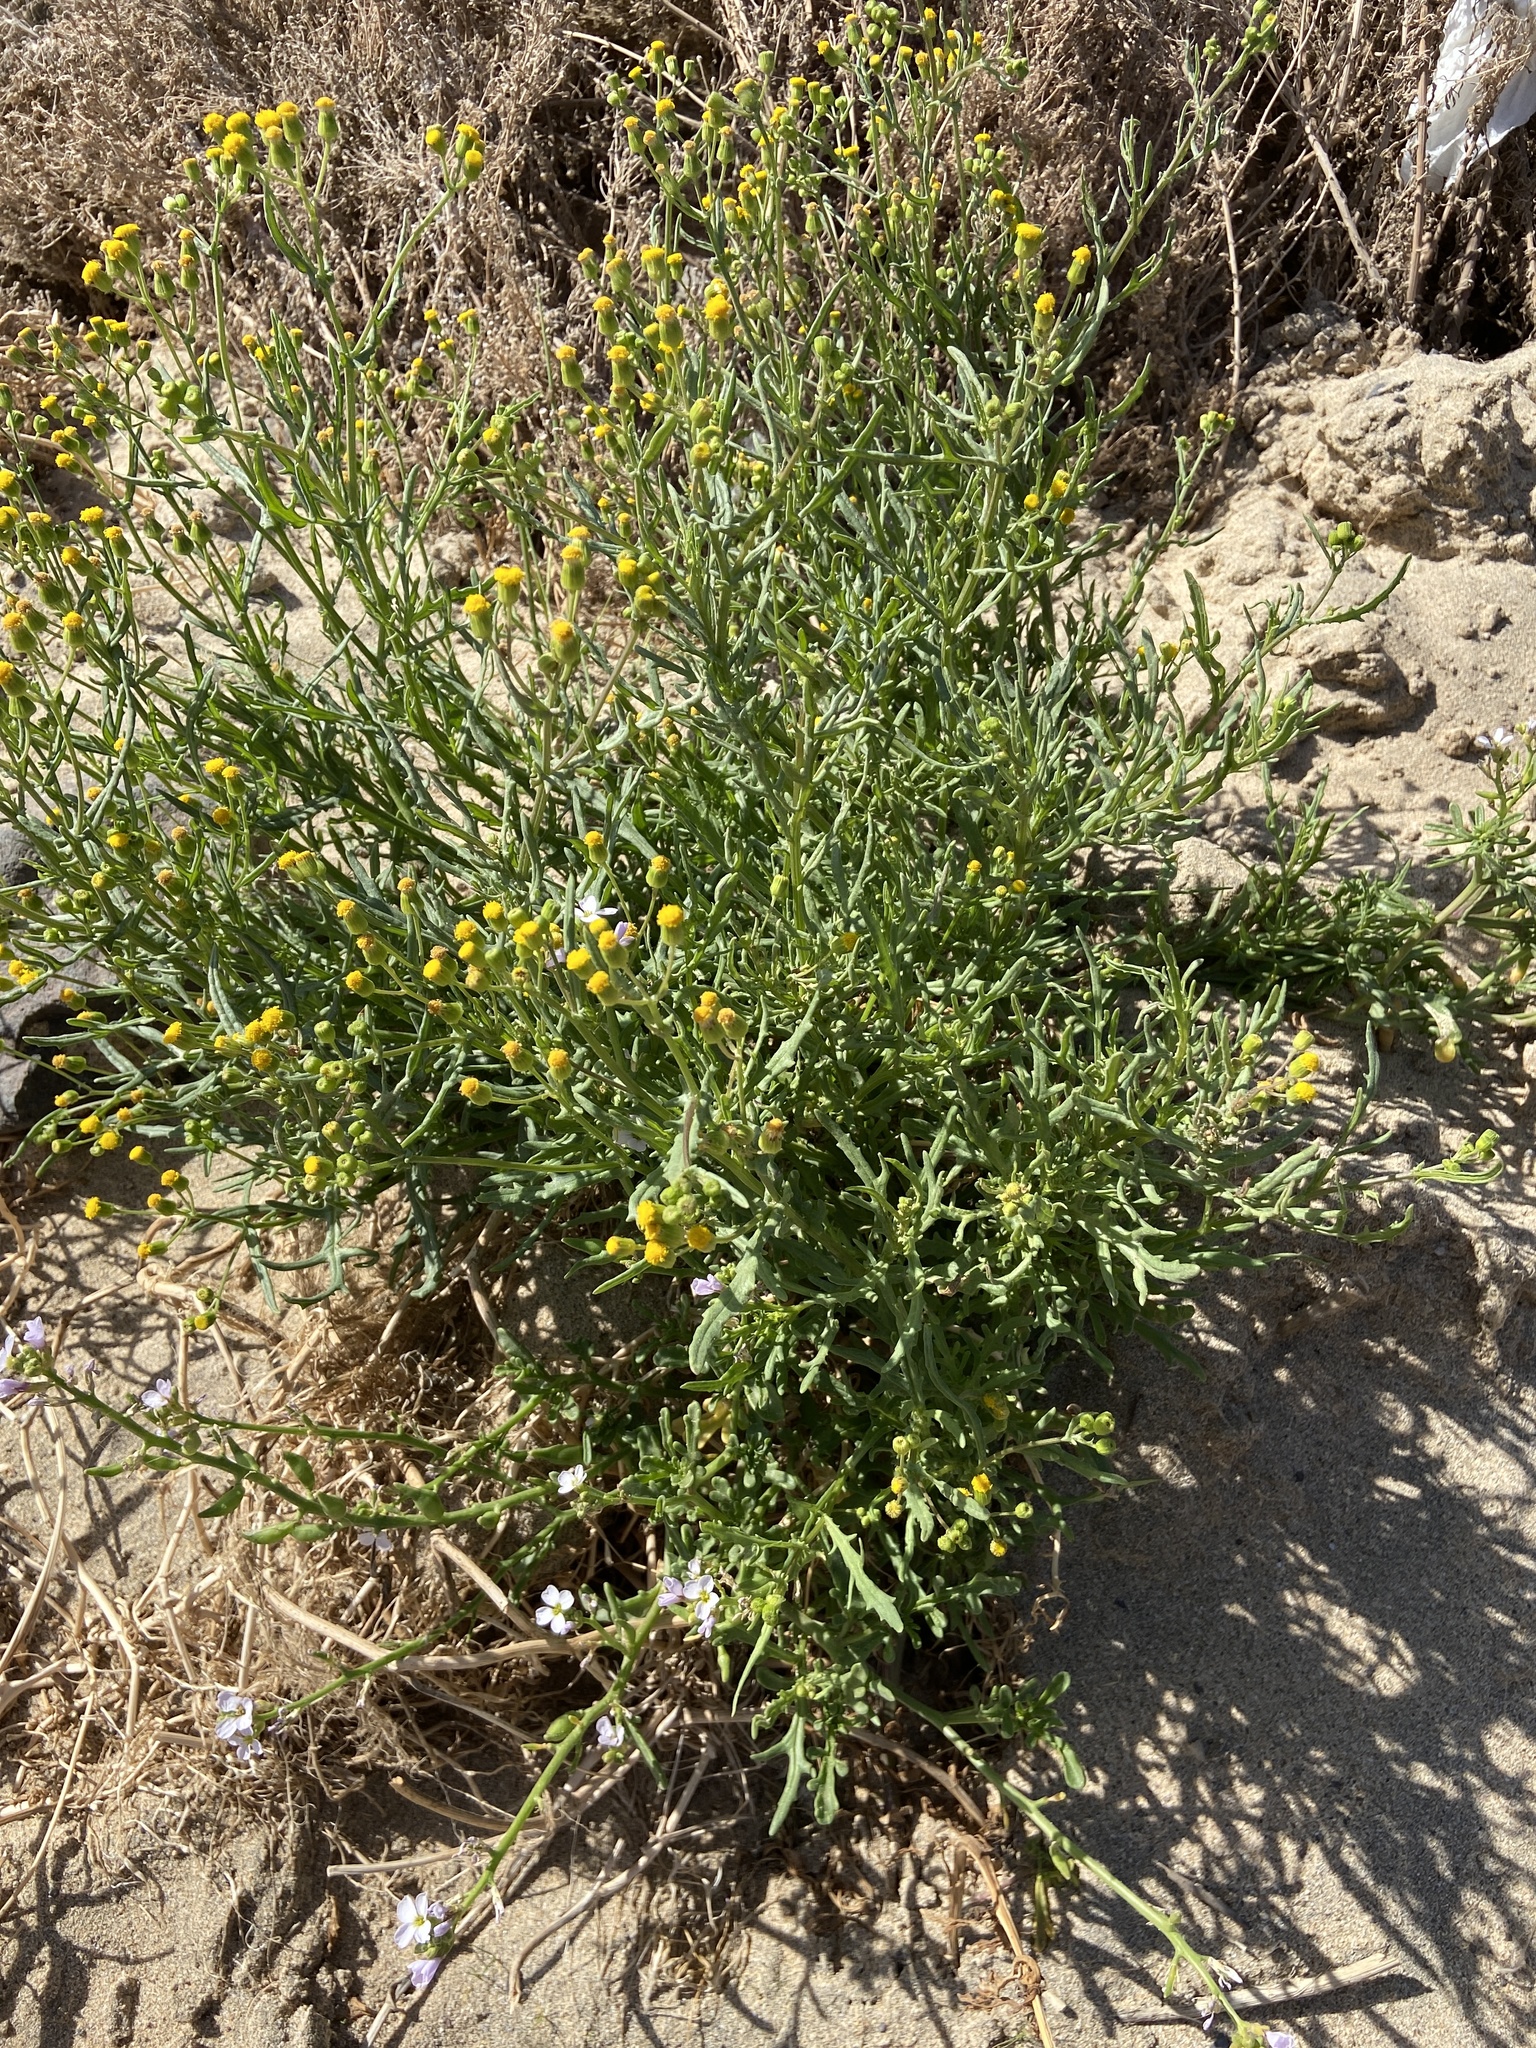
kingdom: Plantae
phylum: Tracheophyta
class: Magnoliopsida
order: Asterales
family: Asteraceae
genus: Senecio
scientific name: Senecio massaicus
